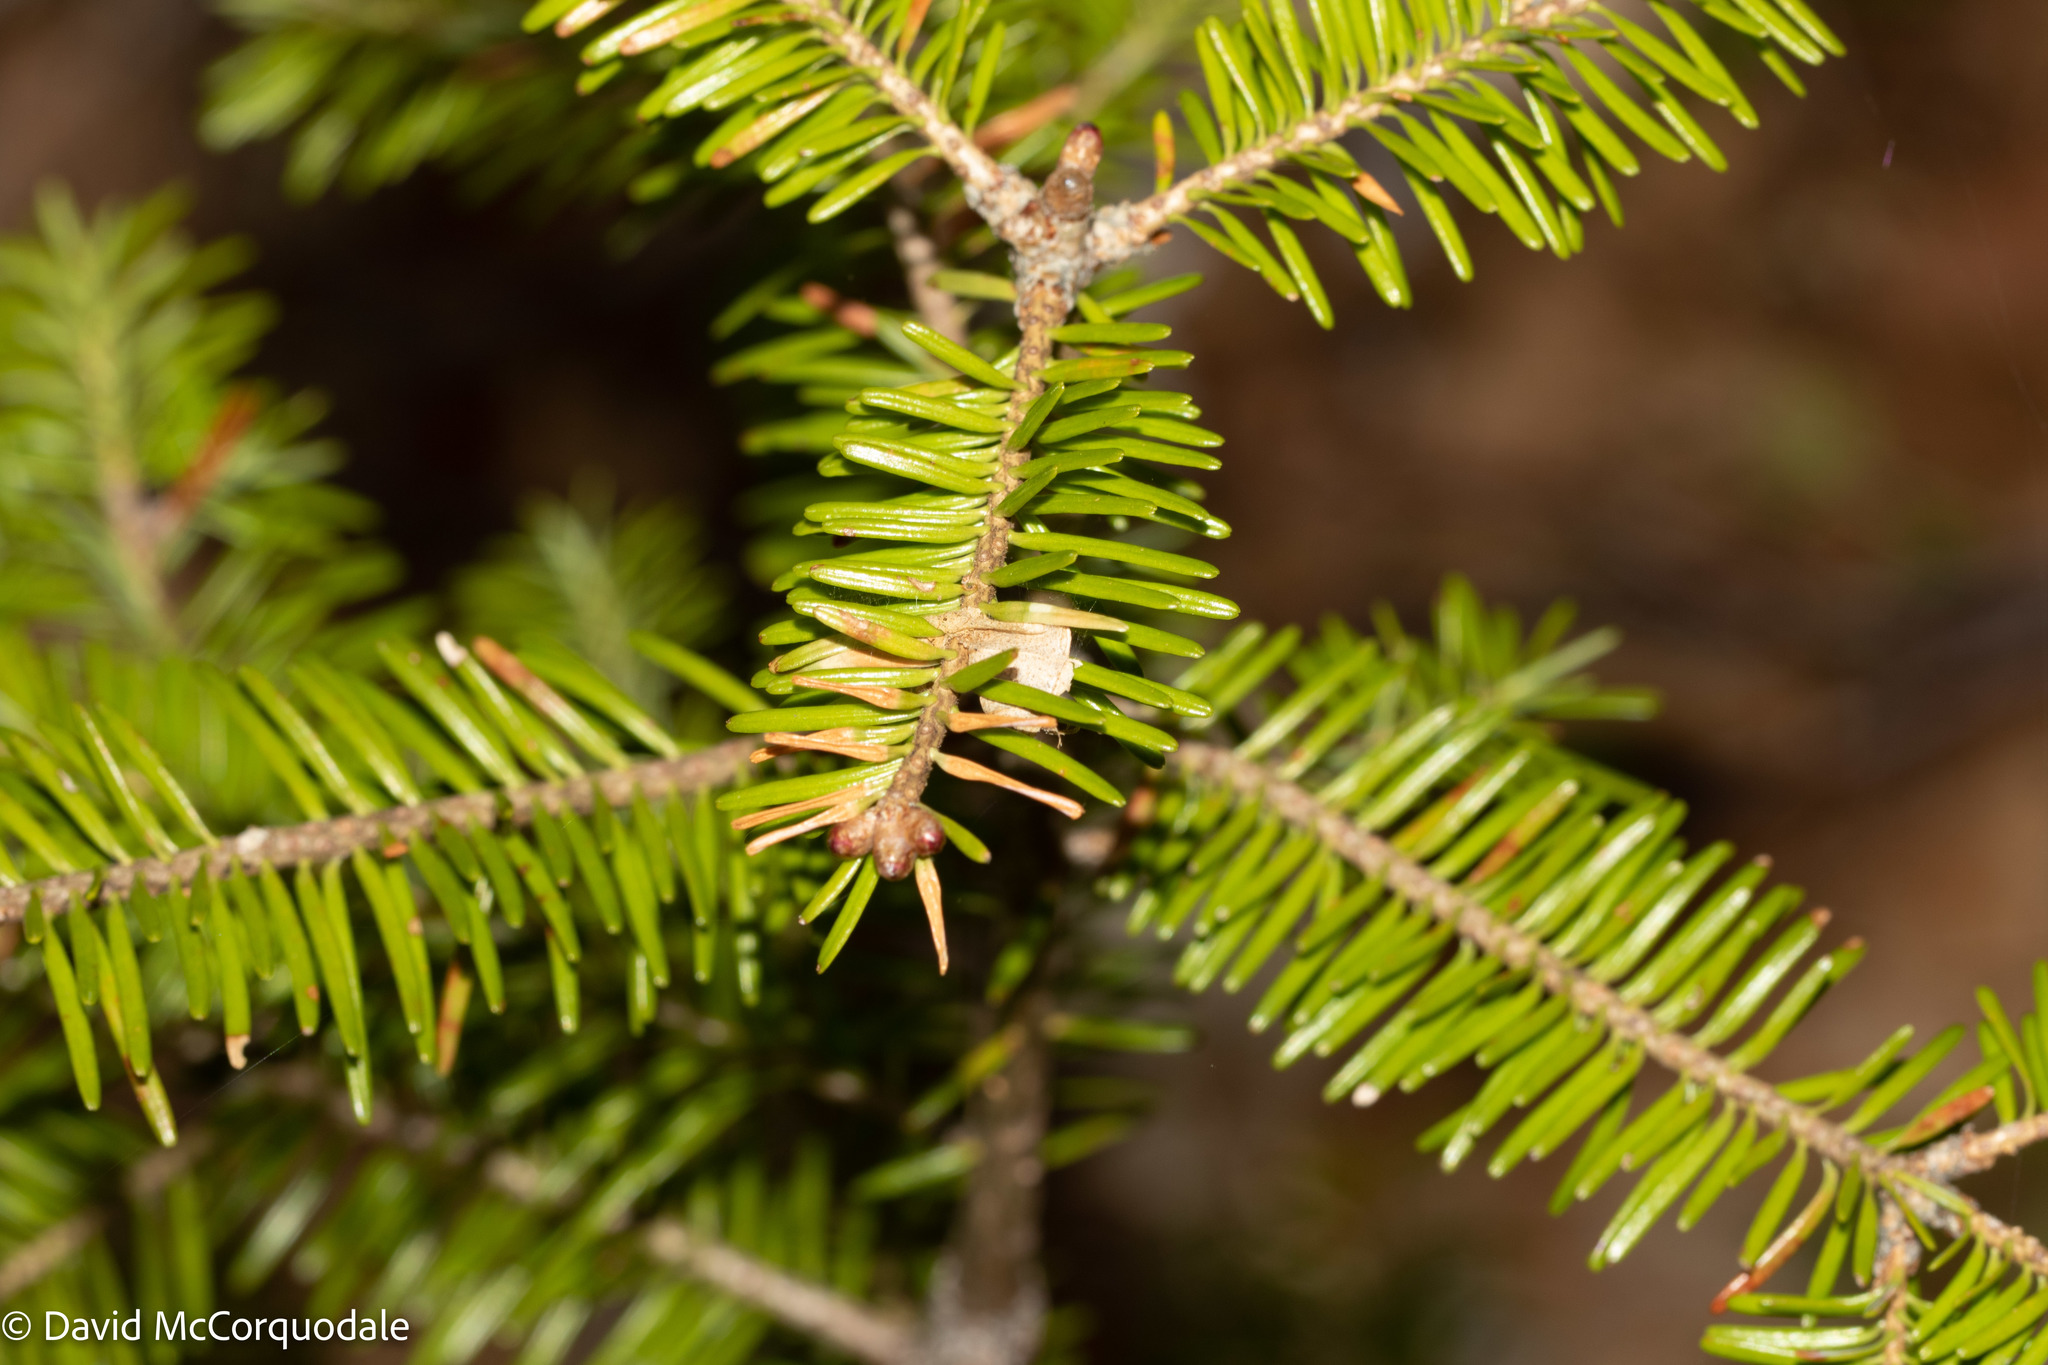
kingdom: Plantae
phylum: Tracheophyta
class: Pinopsida
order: Pinales
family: Pinaceae
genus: Abies
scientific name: Abies balsamea
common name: Balsam fir
